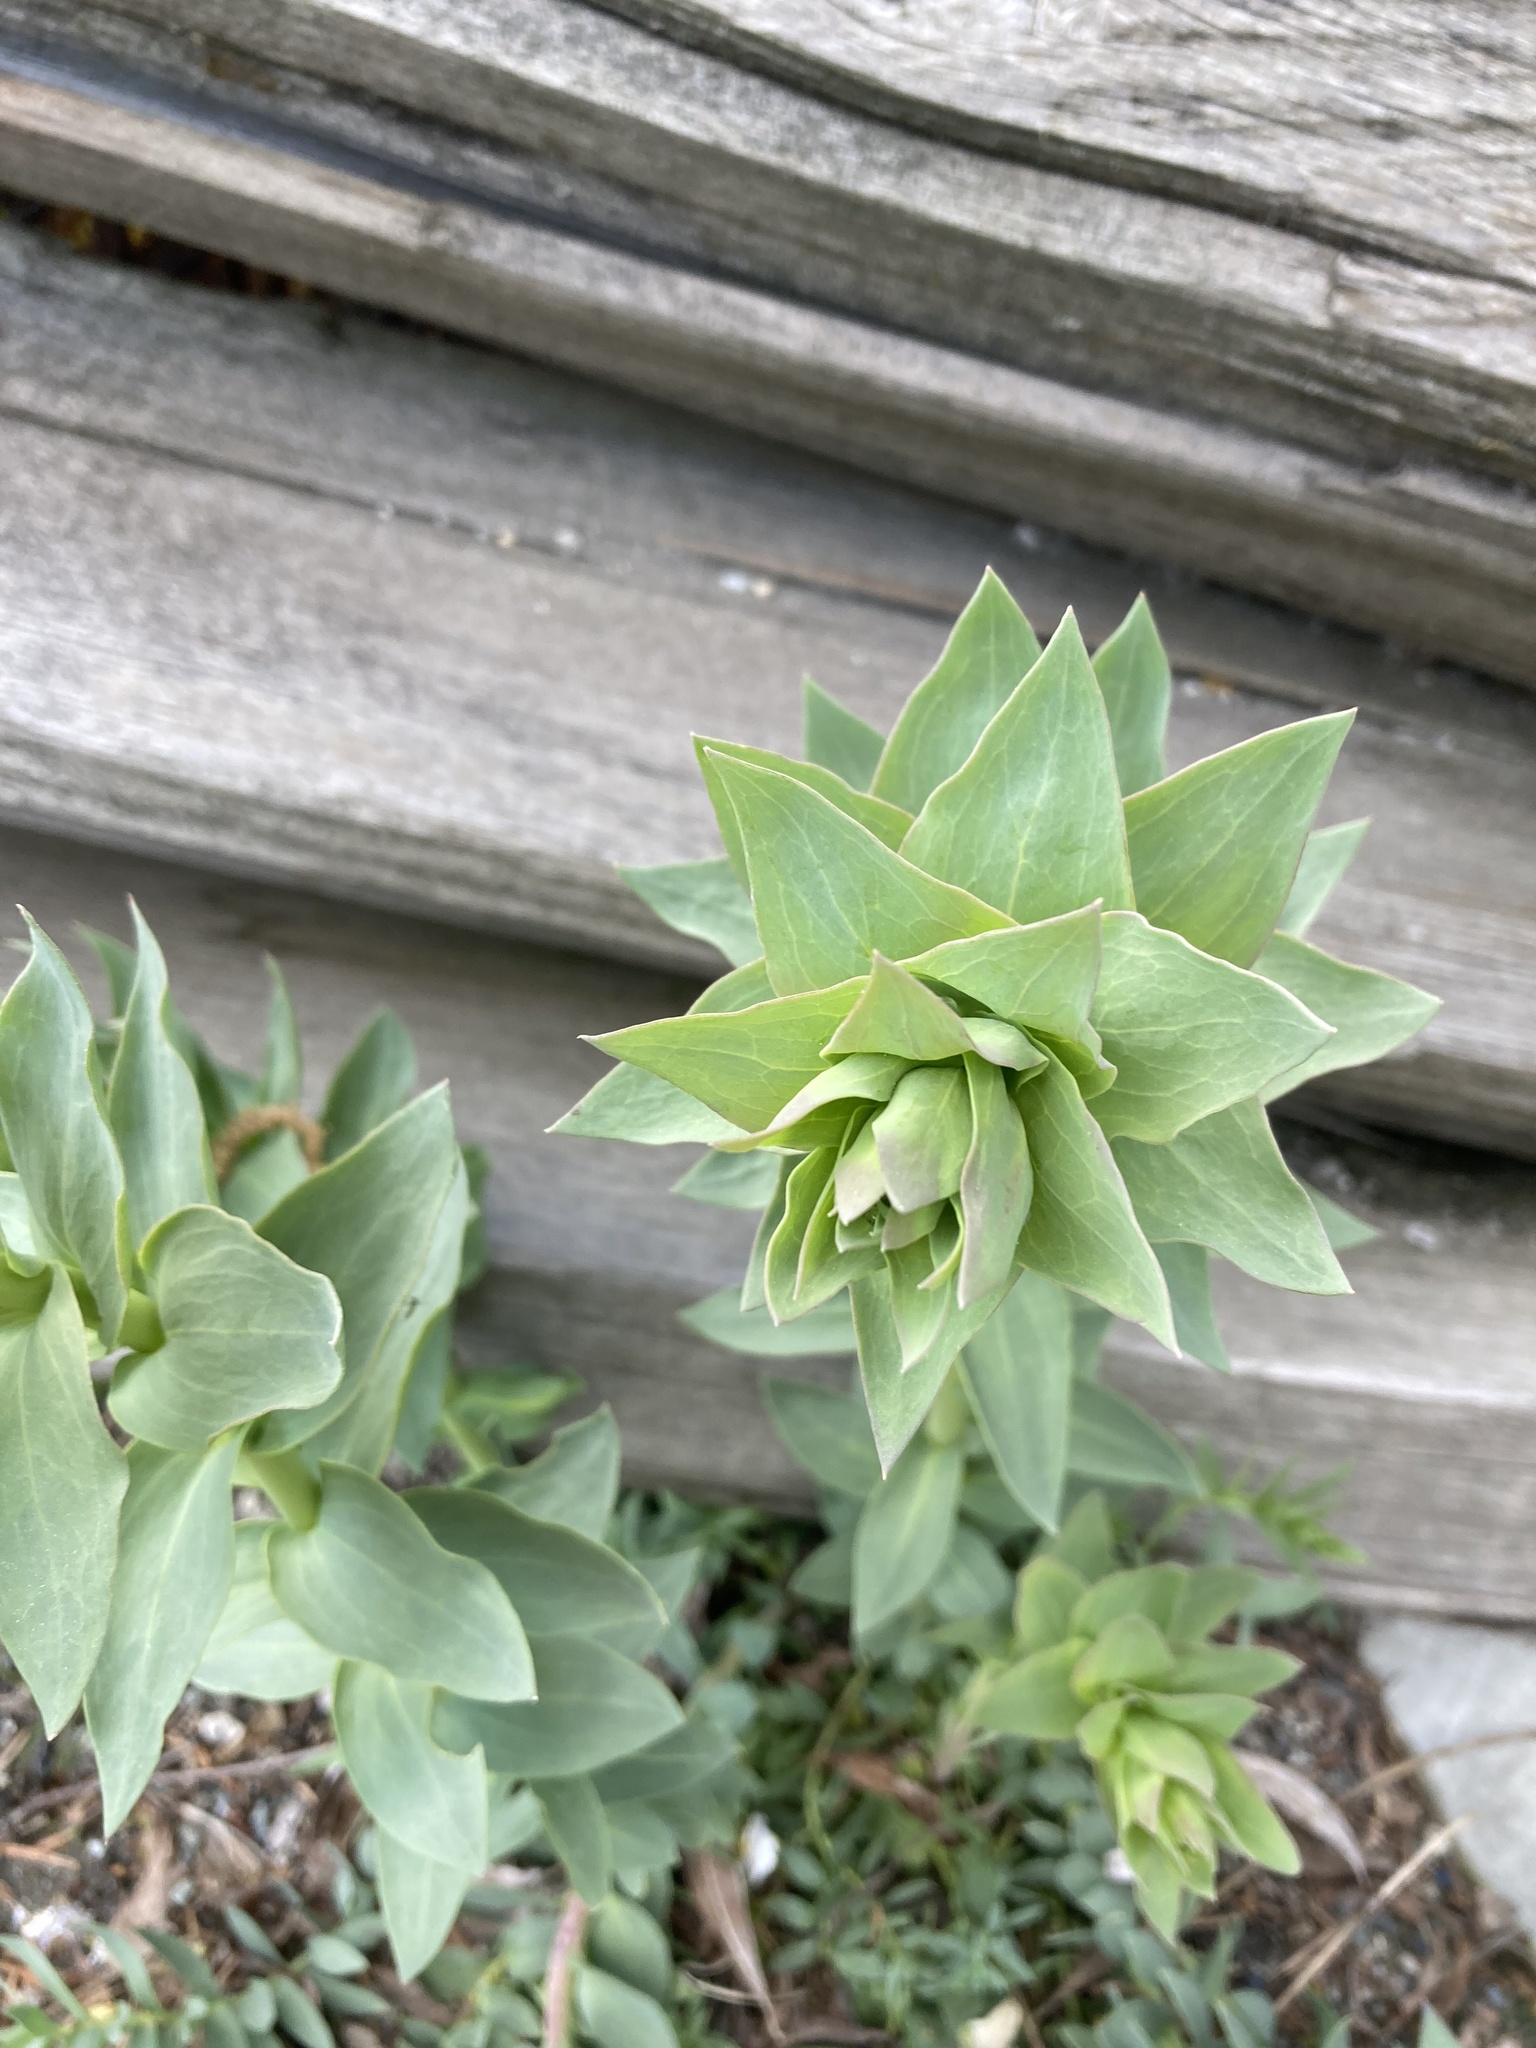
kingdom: Plantae
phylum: Tracheophyta
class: Magnoliopsida
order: Lamiales
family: Plantaginaceae
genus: Linaria
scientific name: Linaria dalmatica
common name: Dalmatian toadflax
